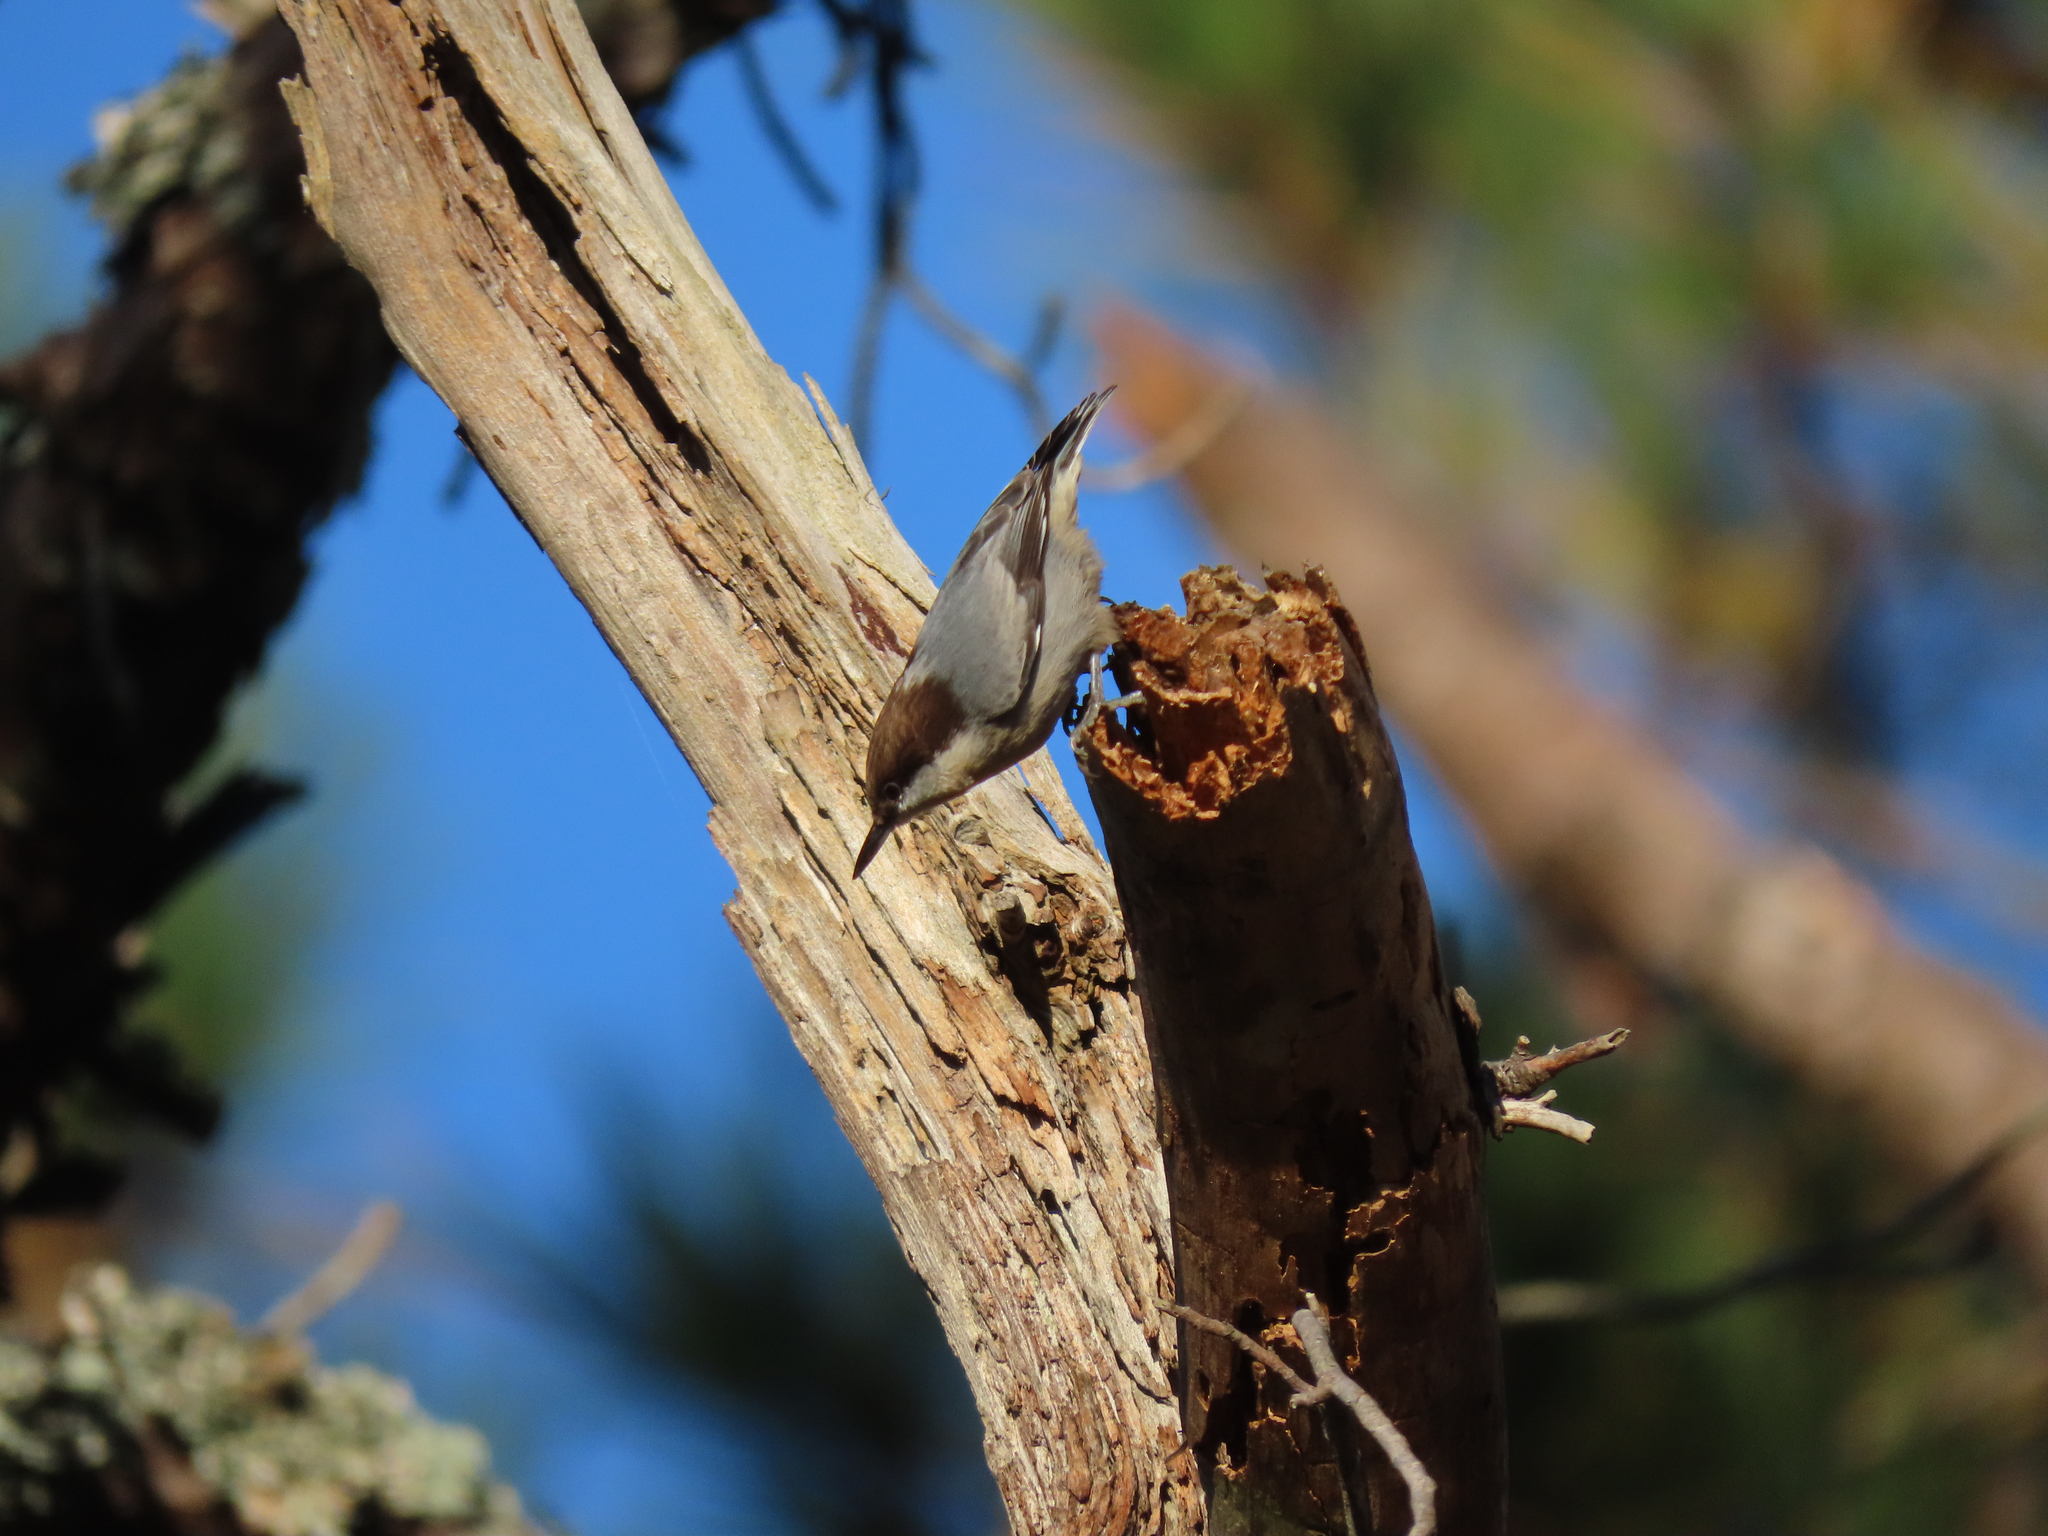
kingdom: Animalia
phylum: Chordata
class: Aves
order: Passeriformes
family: Sittidae
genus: Sitta
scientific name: Sitta pusilla
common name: Brown-headed nuthatch
